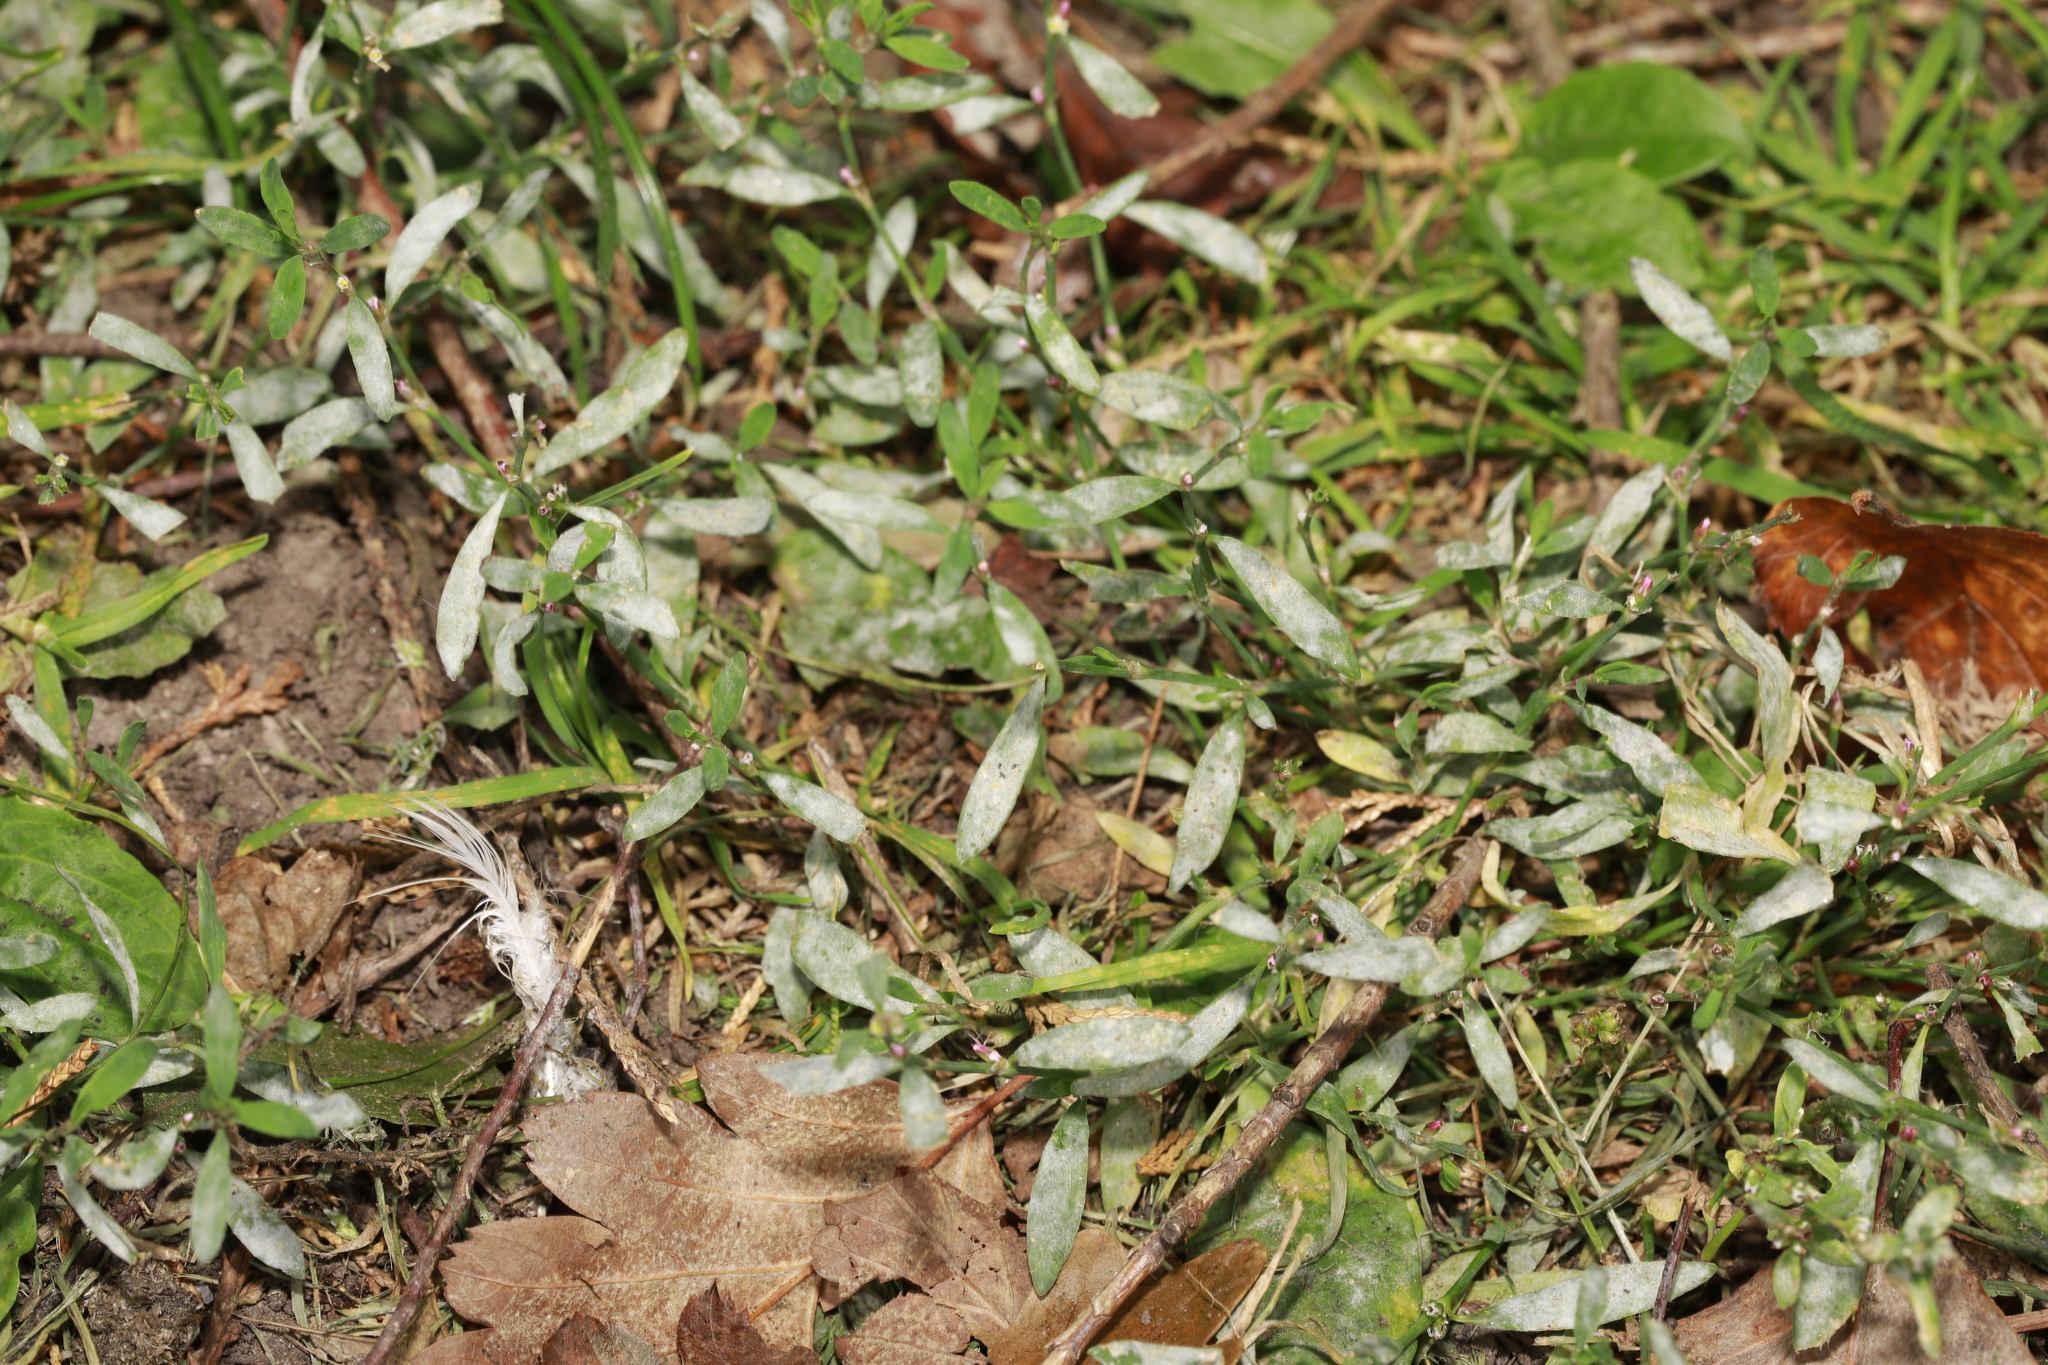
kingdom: Fungi
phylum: Ascomycota
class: Leotiomycetes
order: Helotiales
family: Erysiphaceae
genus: Erysiphe
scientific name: Erysiphe polygoni
